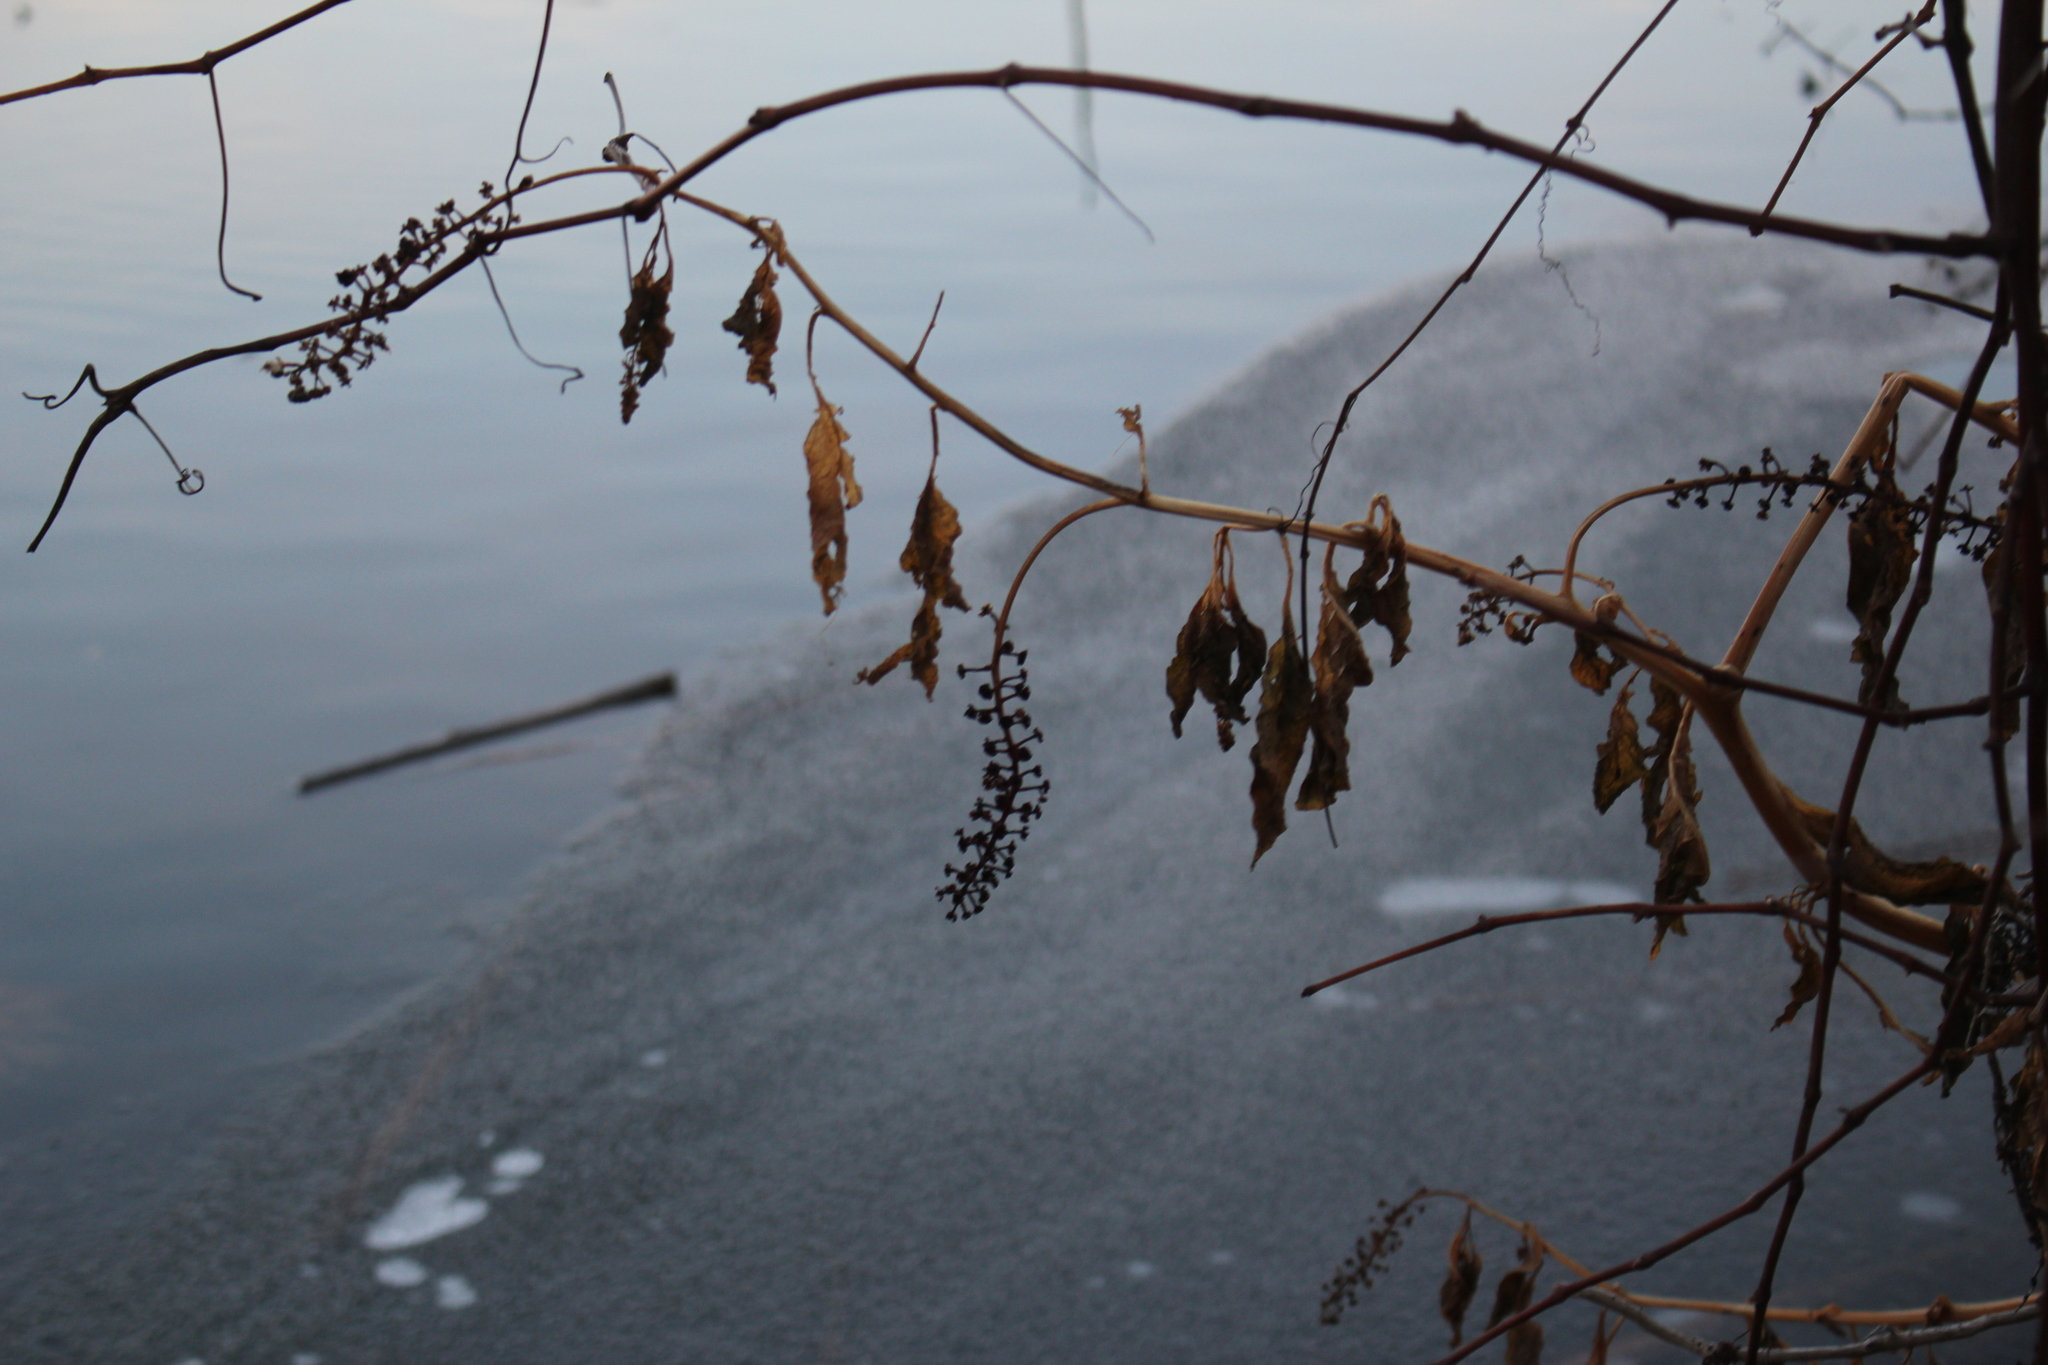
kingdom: Plantae
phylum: Tracheophyta
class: Magnoliopsida
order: Caryophyllales
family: Phytolaccaceae
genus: Phytolacca
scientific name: Phytolacca americana
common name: American pokeweed
